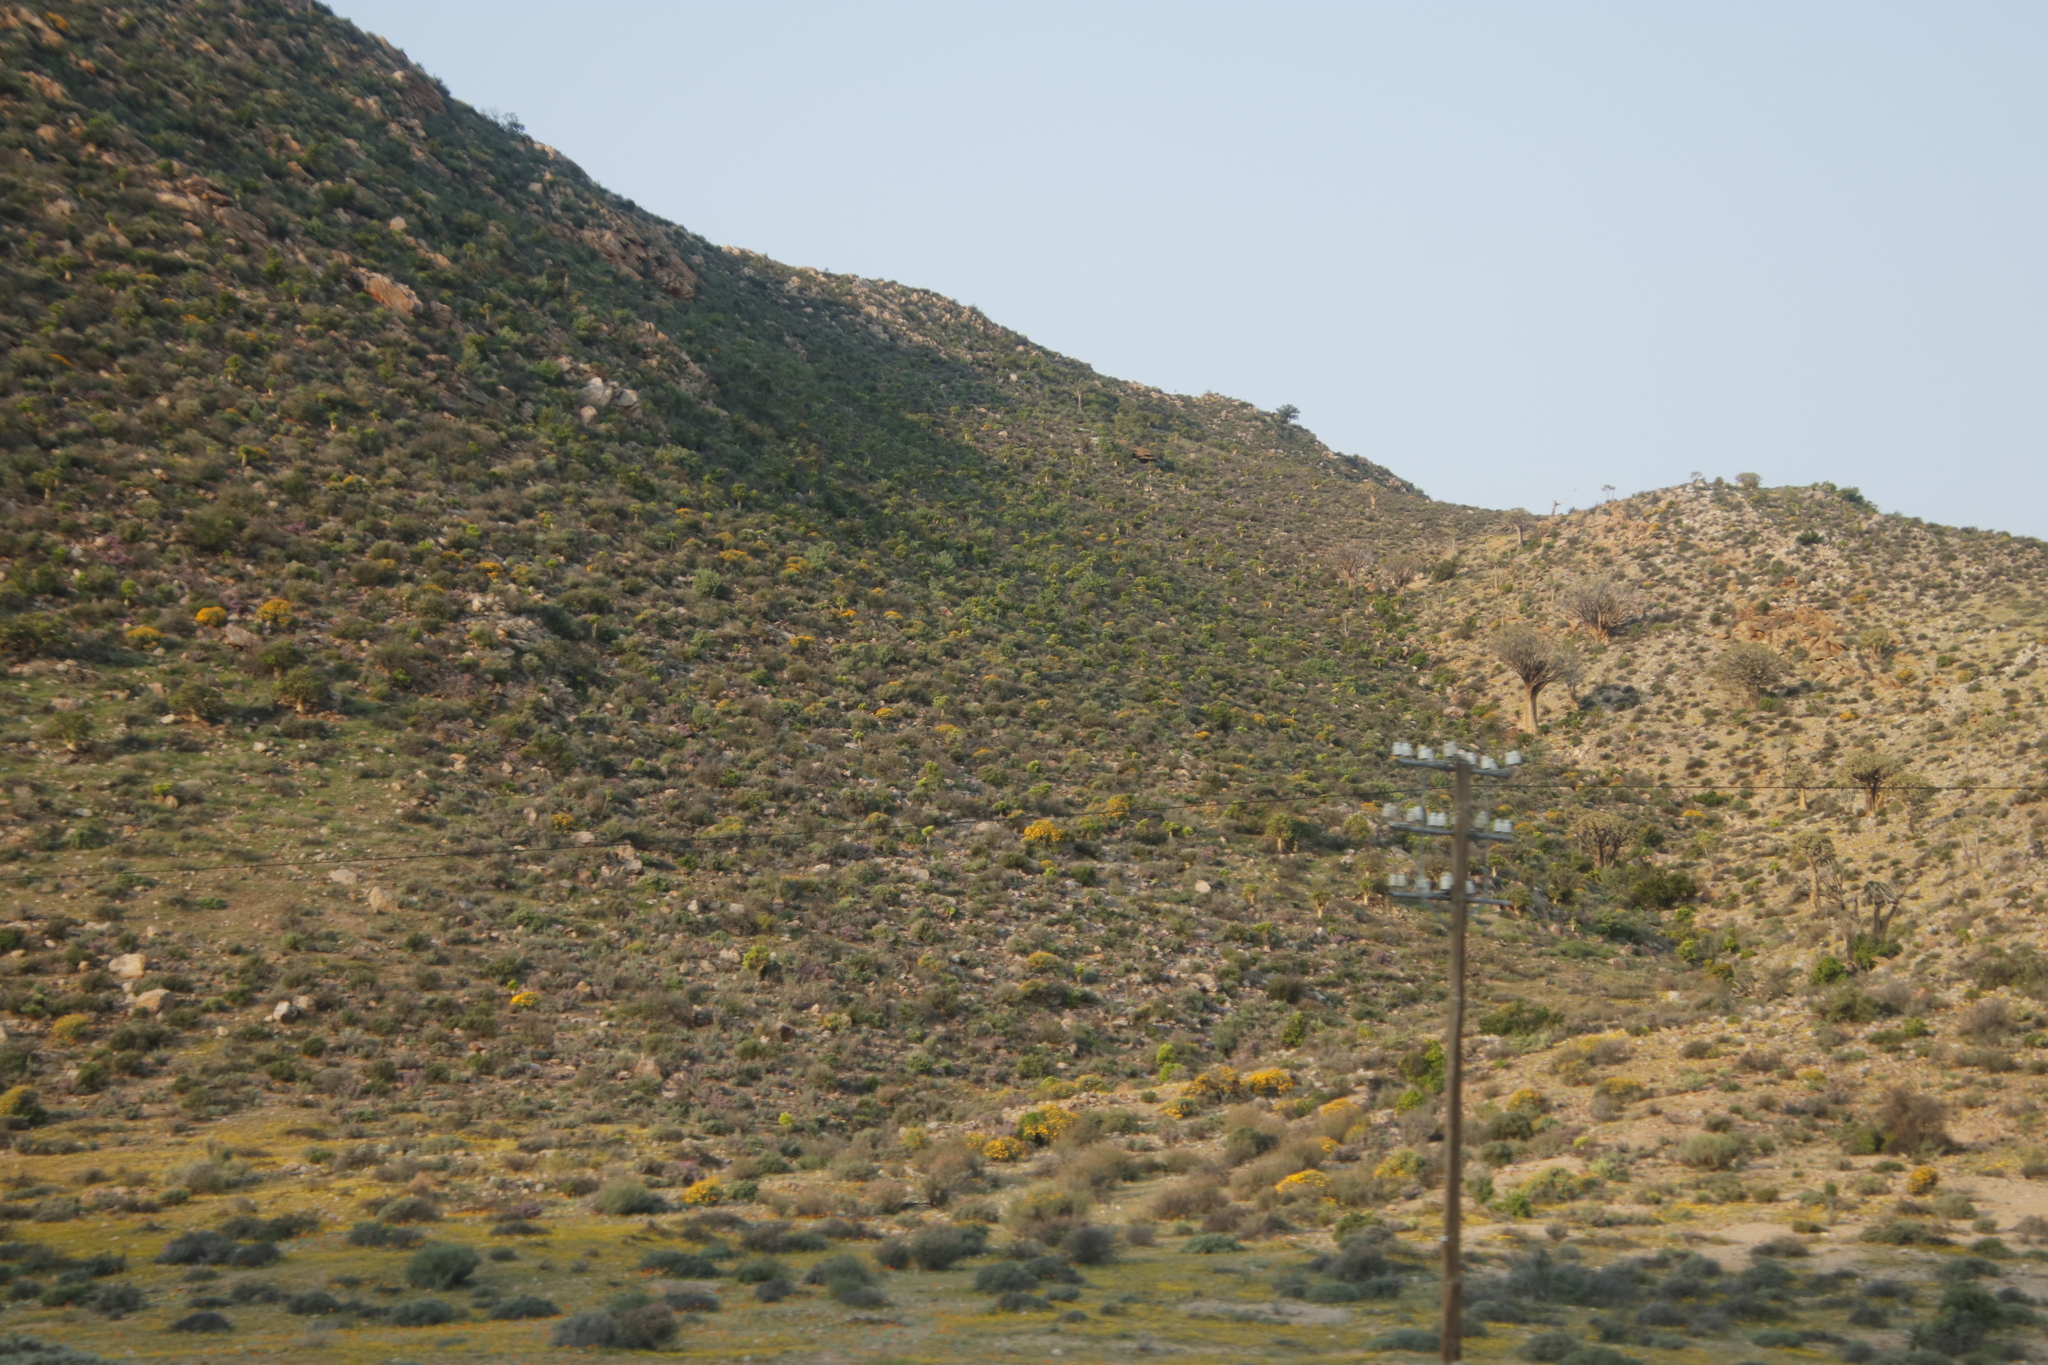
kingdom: Plantae
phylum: Tracheophyta
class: Magnoliopsida
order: Saxifragales
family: Crassulaceae
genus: Tylecodon
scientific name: Tylecodon paniculatus
